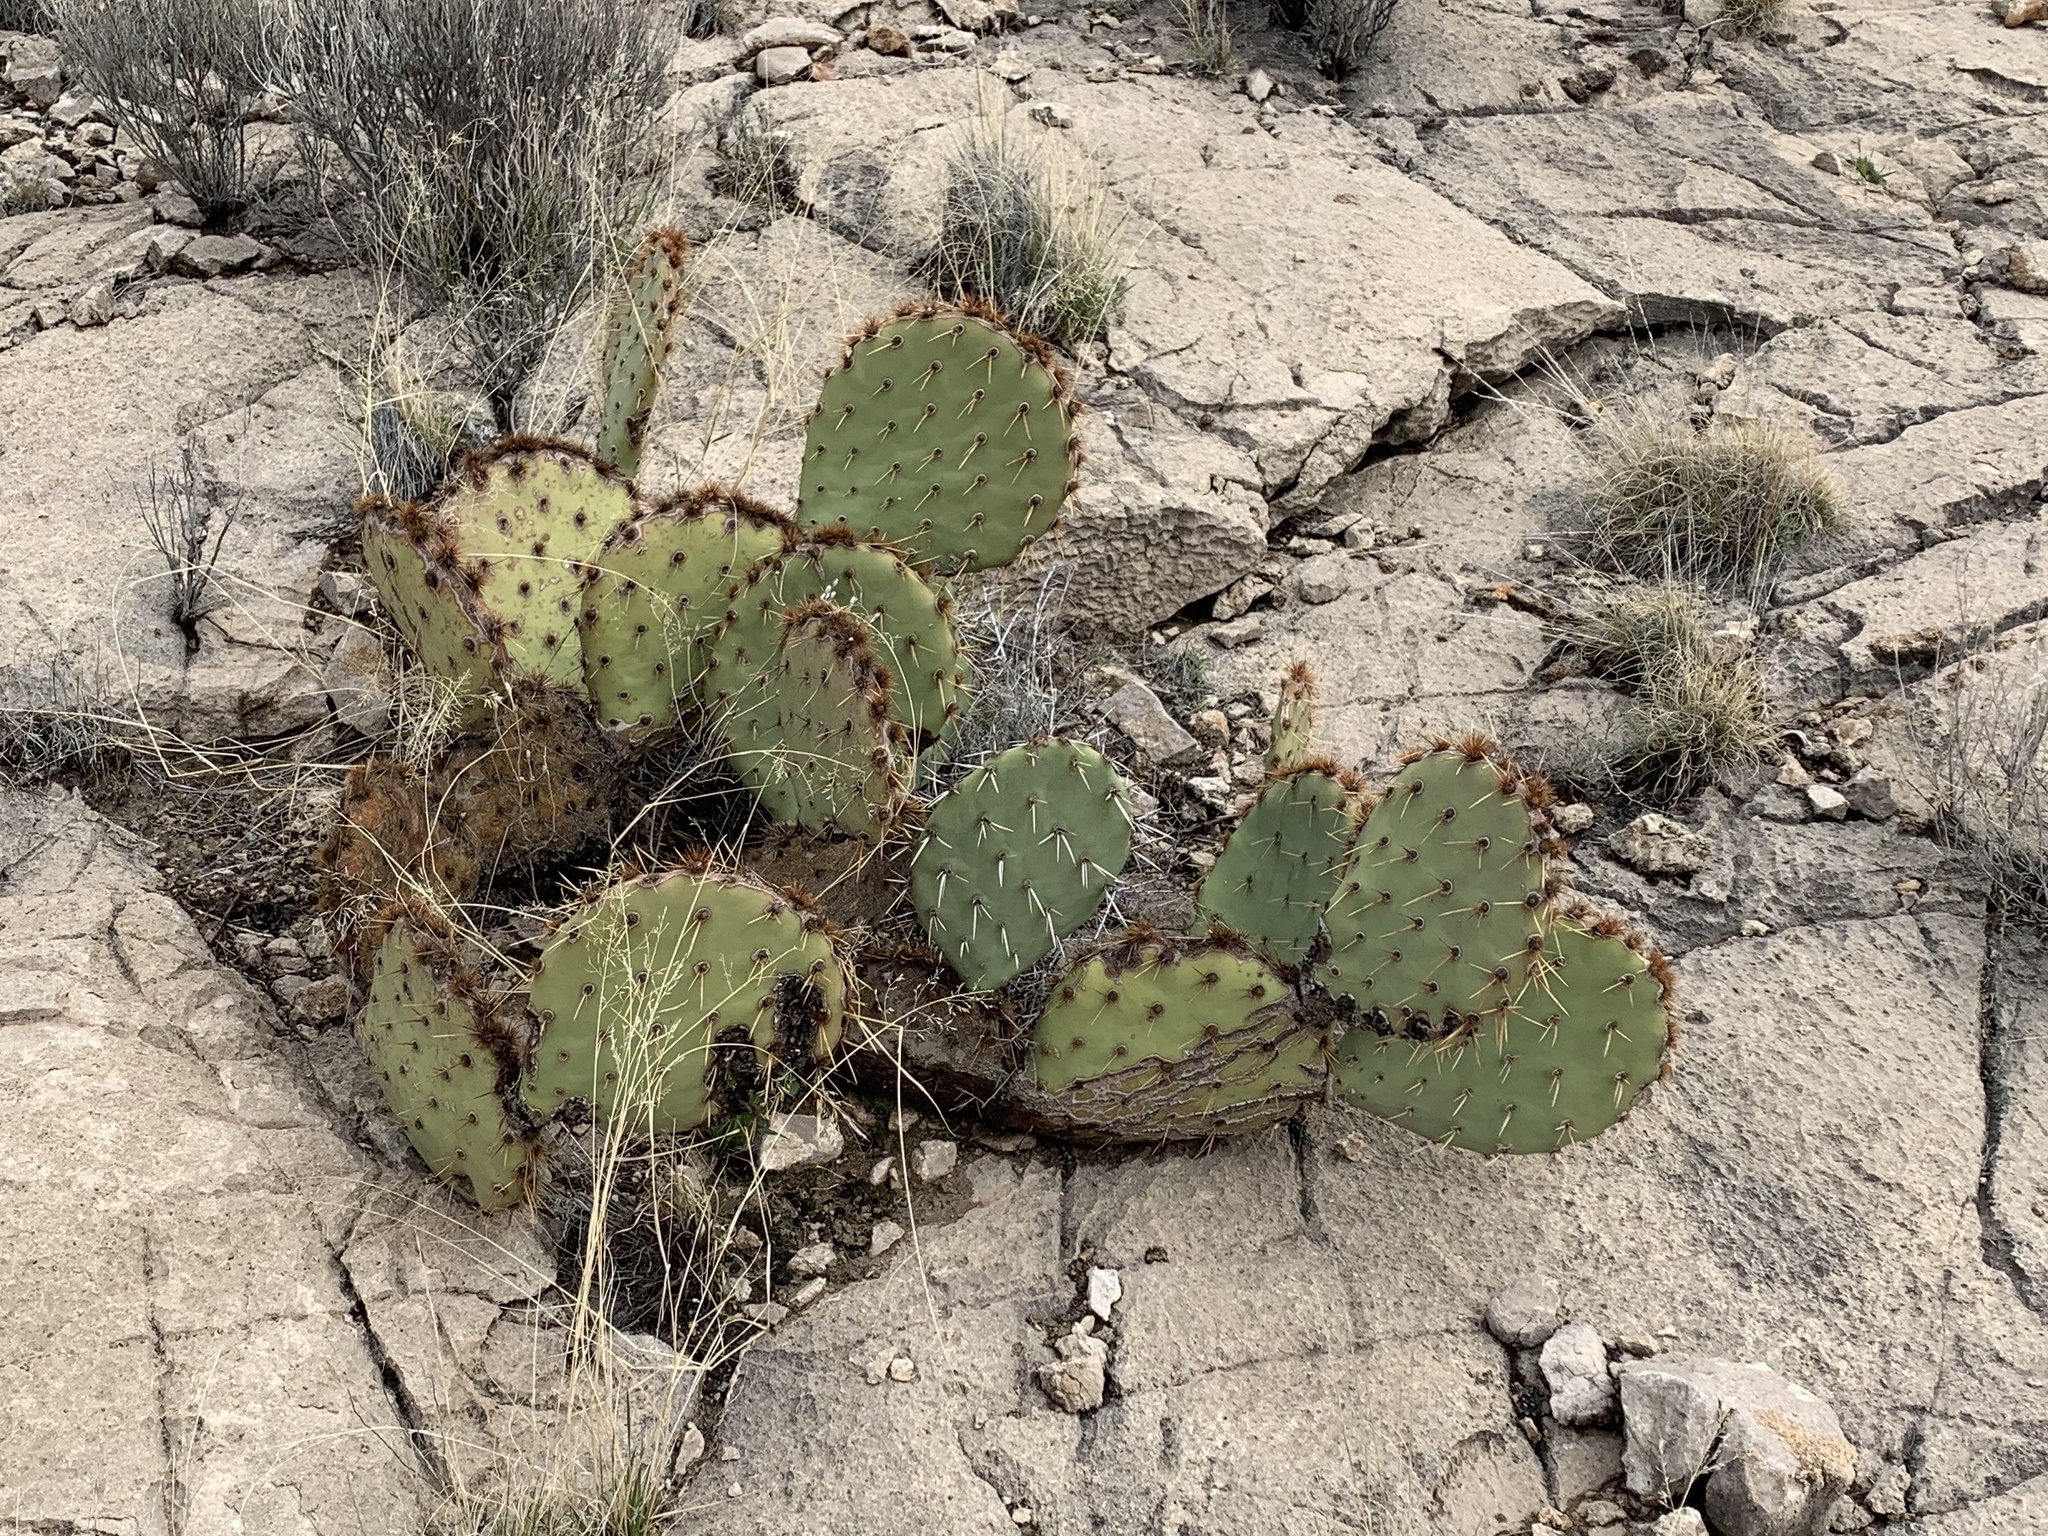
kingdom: Plantae
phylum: Tracheophyta
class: Magnoliopsida
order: Caryophyllales
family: Cactaceae
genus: Opuntia
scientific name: Opuntia phaeacantha
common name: New mexico prickly-pear
